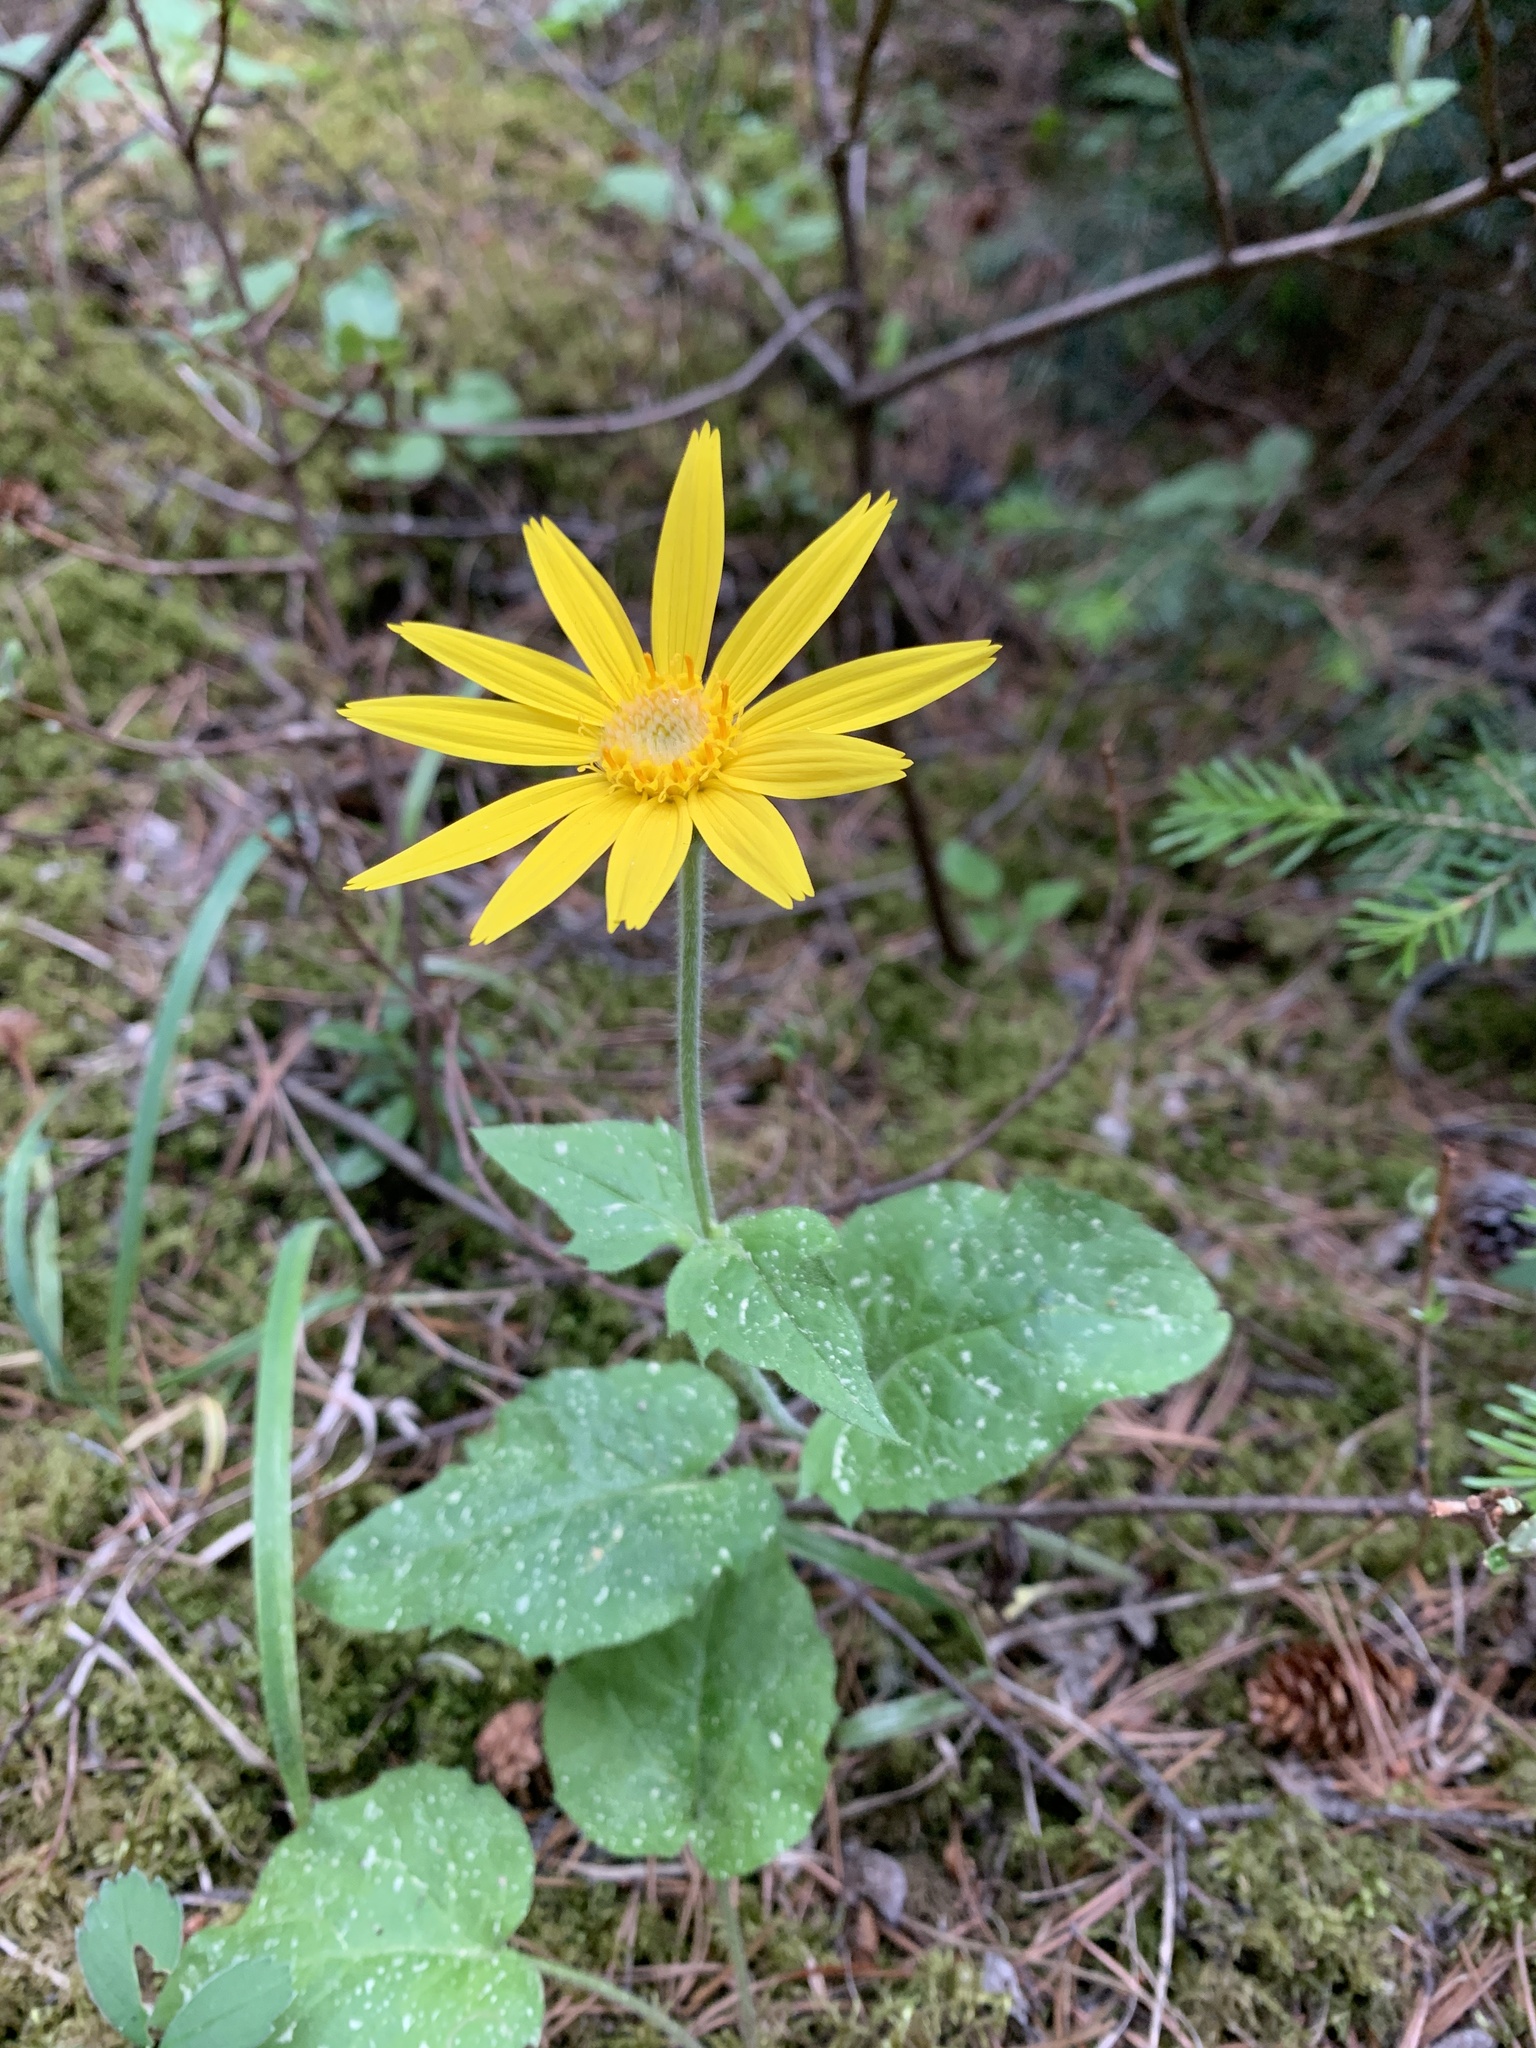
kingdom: Plantae
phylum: Tracheophyta
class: Magnoliopsida
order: Asterales
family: Asteraceae
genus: Arnica
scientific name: Arnica cordifolia
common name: Heart-leaf arnica
